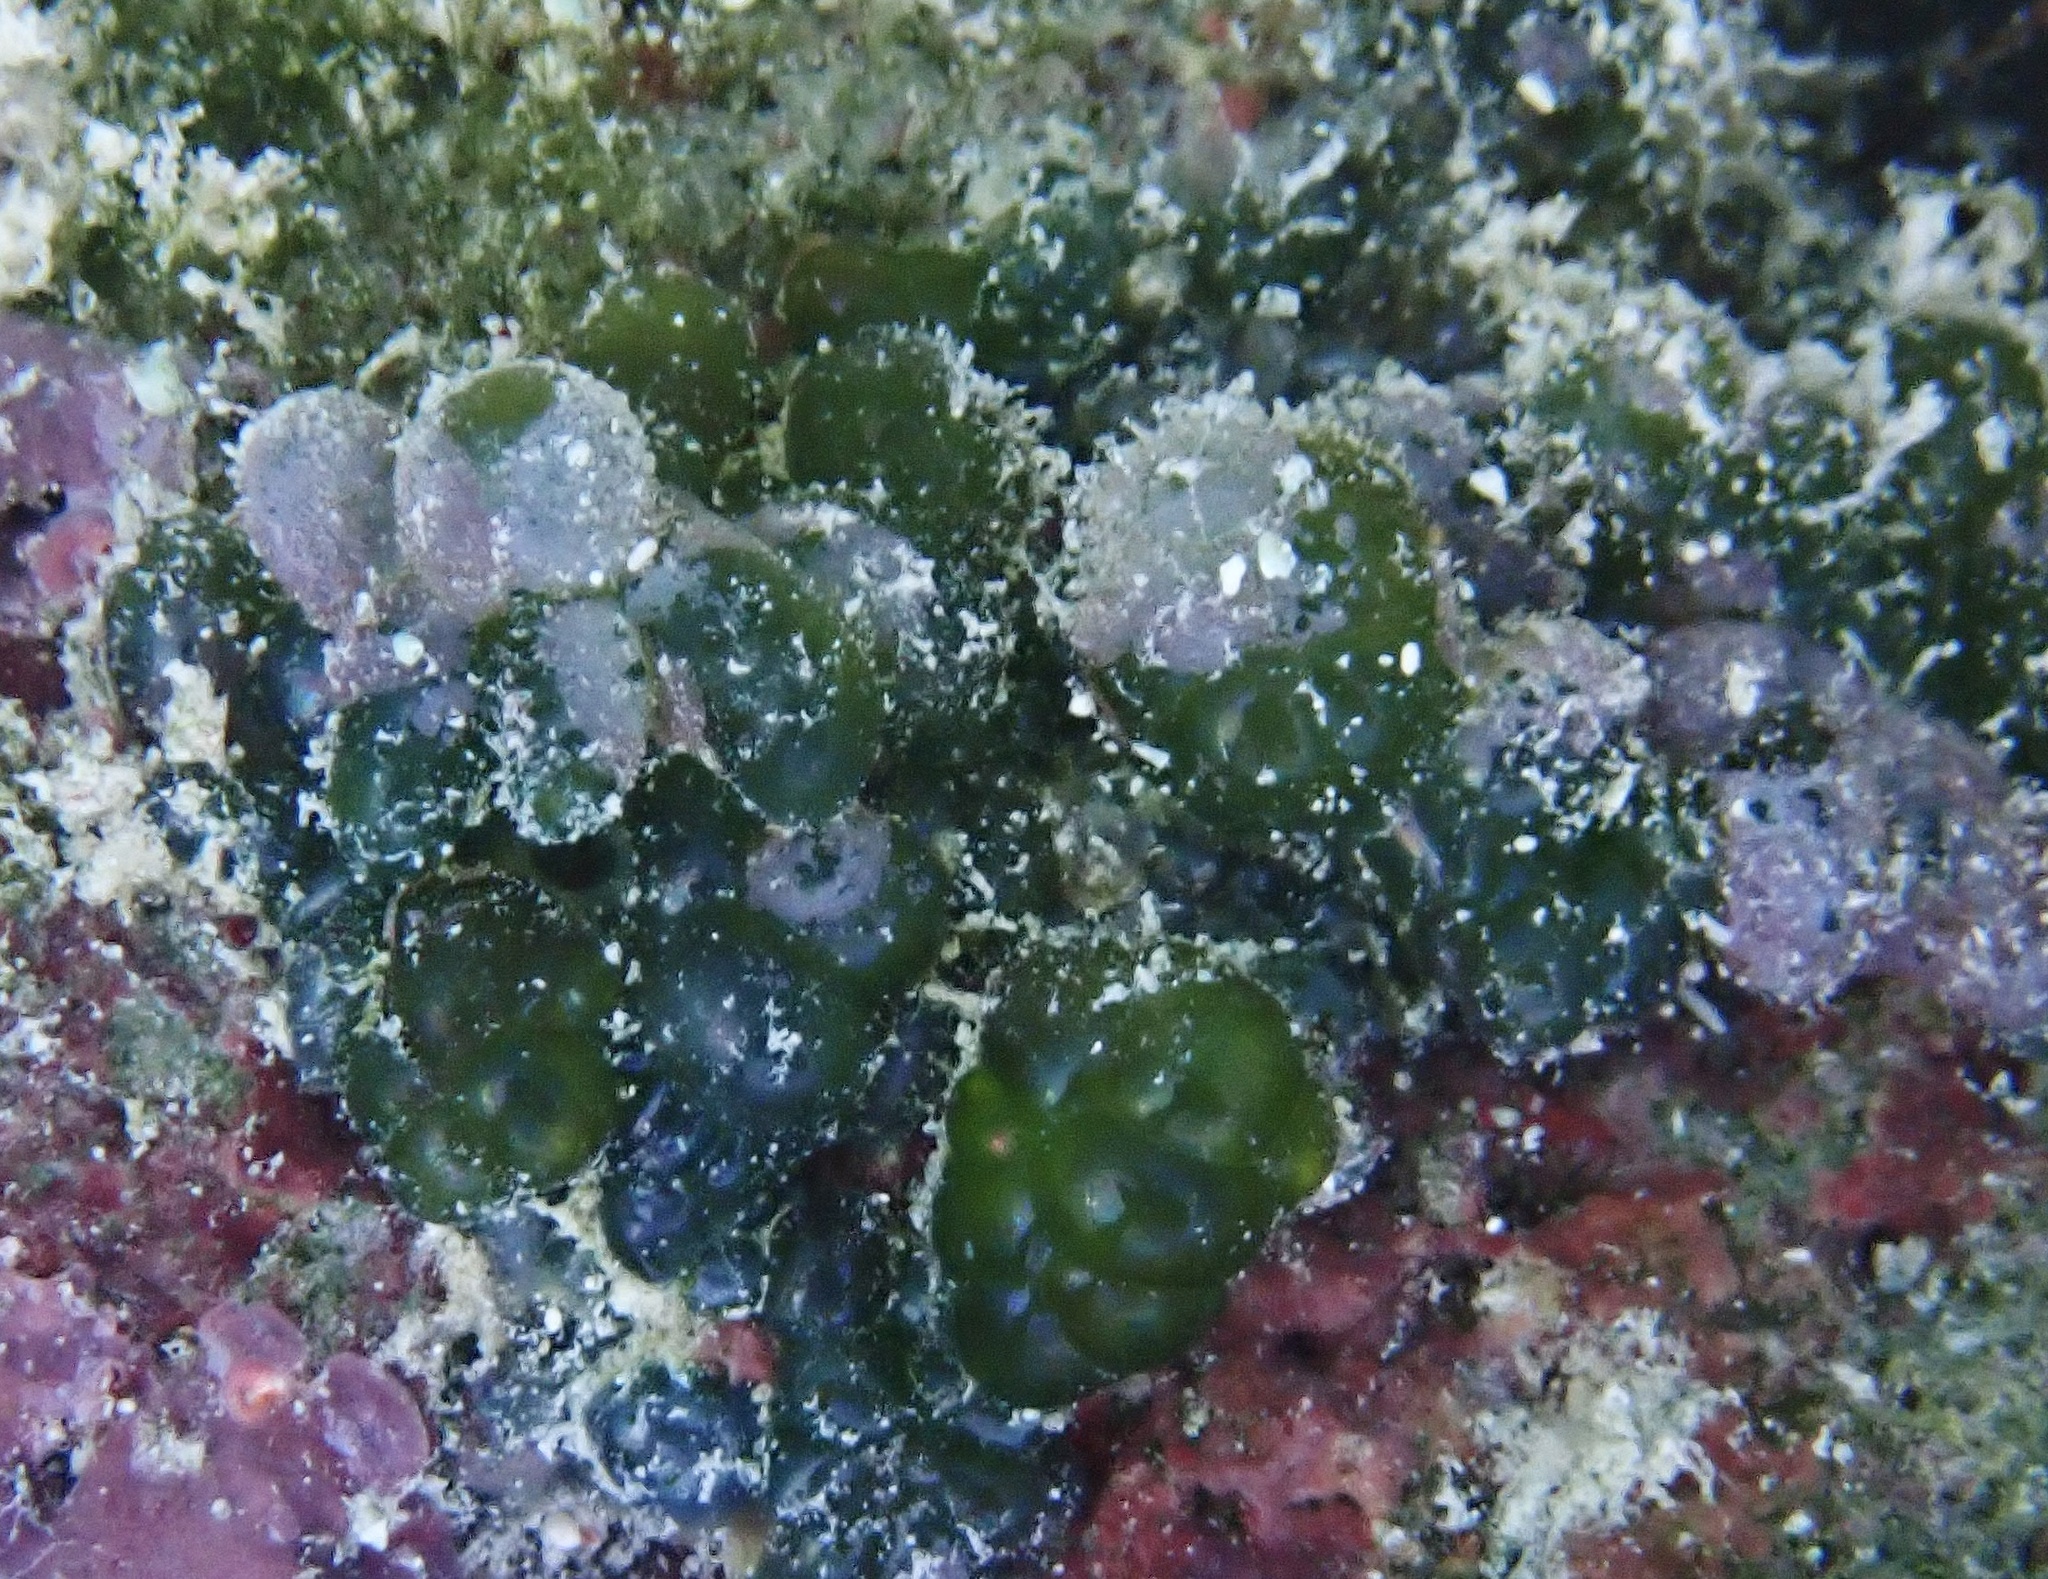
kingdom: Plantae
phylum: Chlorophyta
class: Ulvophyceae
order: Siphonocladales
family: Valoniaceae
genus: Valonia
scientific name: Valonia macrophysa
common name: Elongated sea pearls
